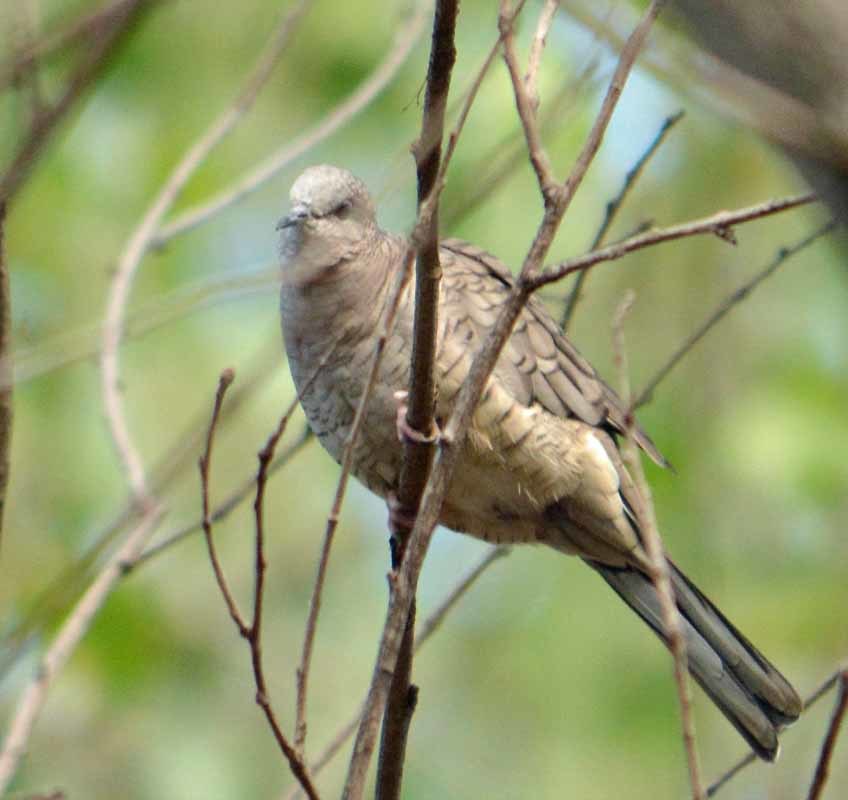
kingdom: Animalia
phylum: Chordata
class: Aves
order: Columbiformes
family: Columbidae
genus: Columbina
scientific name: Columbina inca
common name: Inca dove
